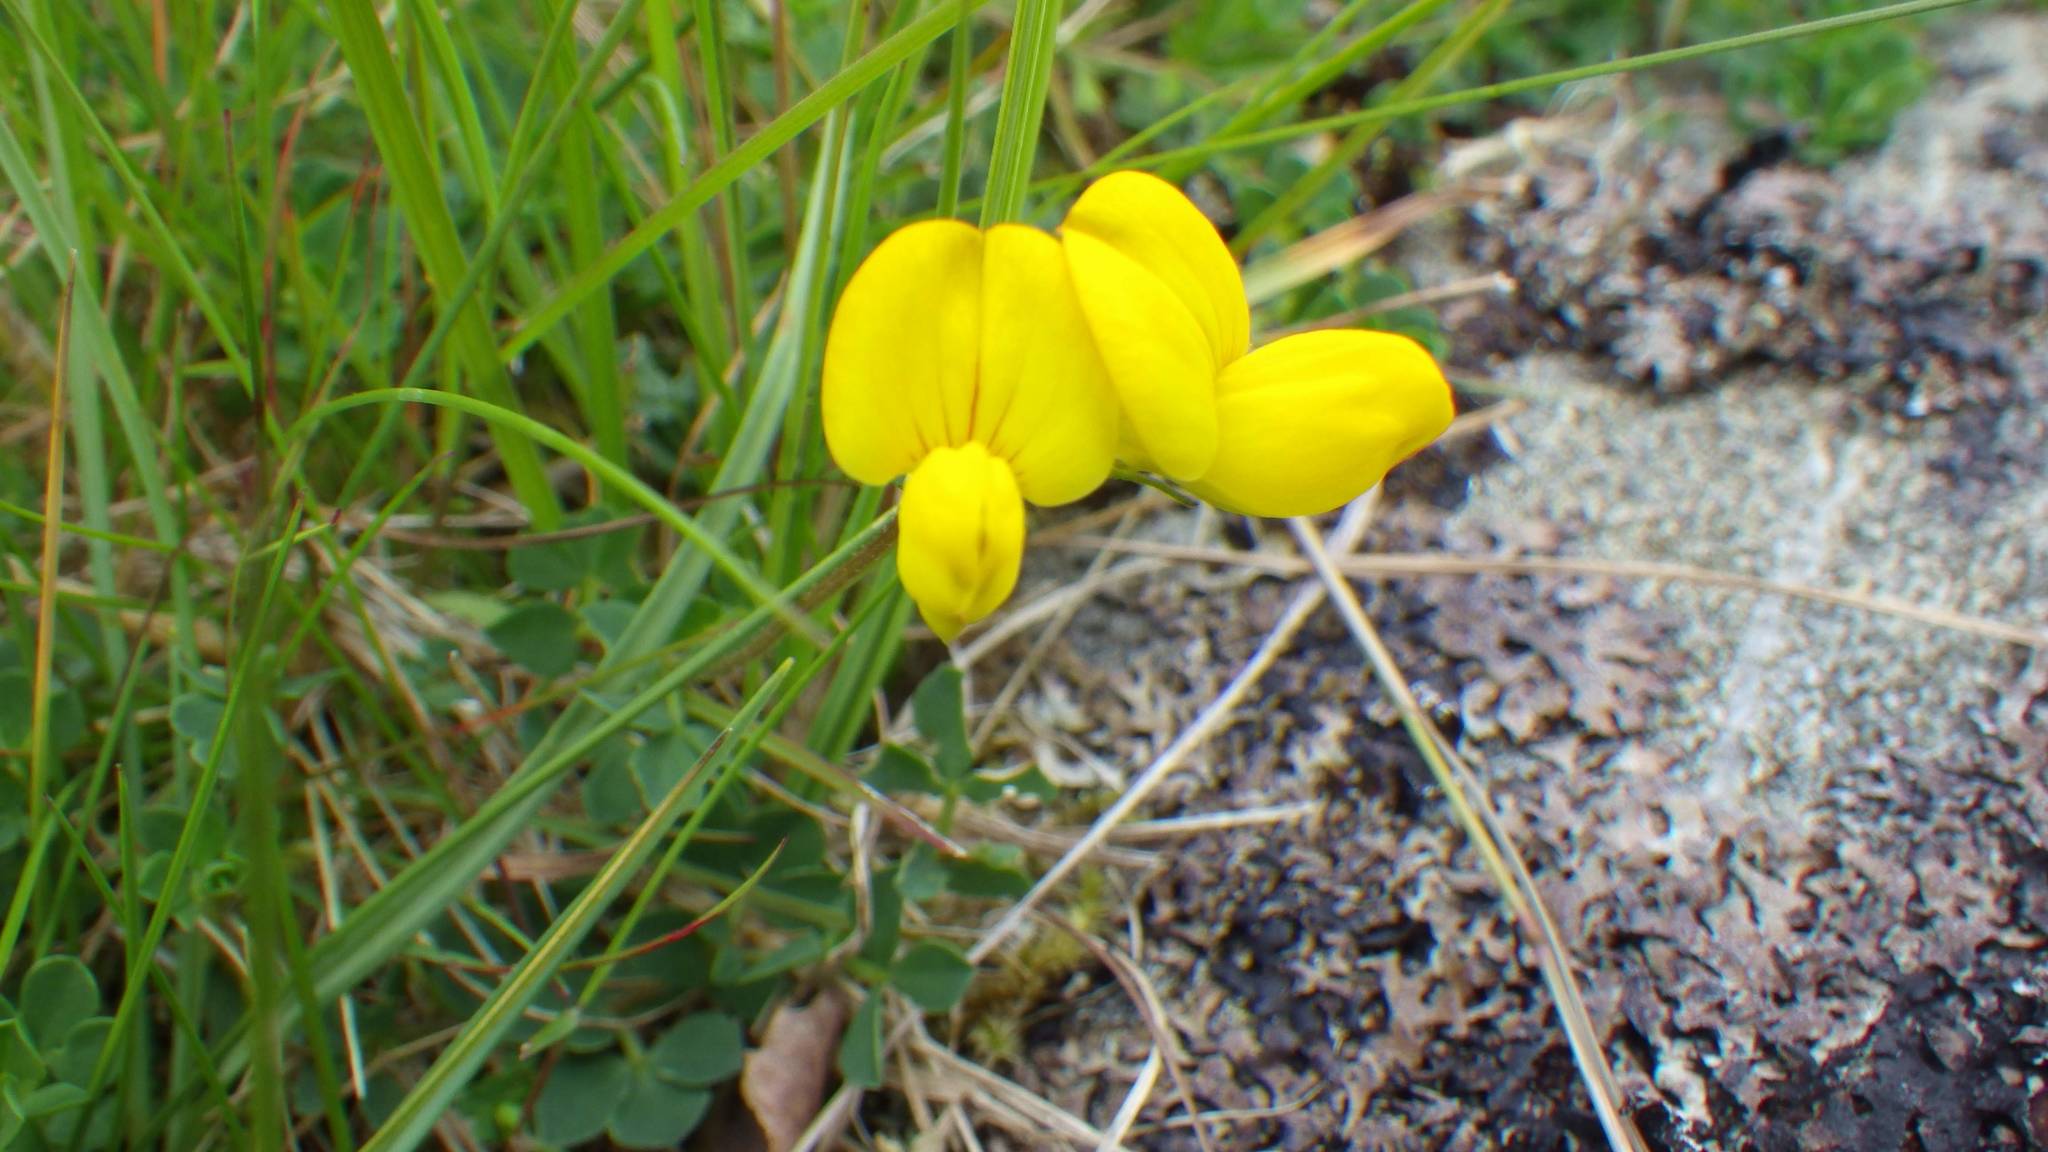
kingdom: Plantae
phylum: Tracheophyta
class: Magnoliopsida
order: Fabales
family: Fabaceae
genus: Lotus
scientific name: Lotus corniculatus
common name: Common bird's-foot-trefoil
